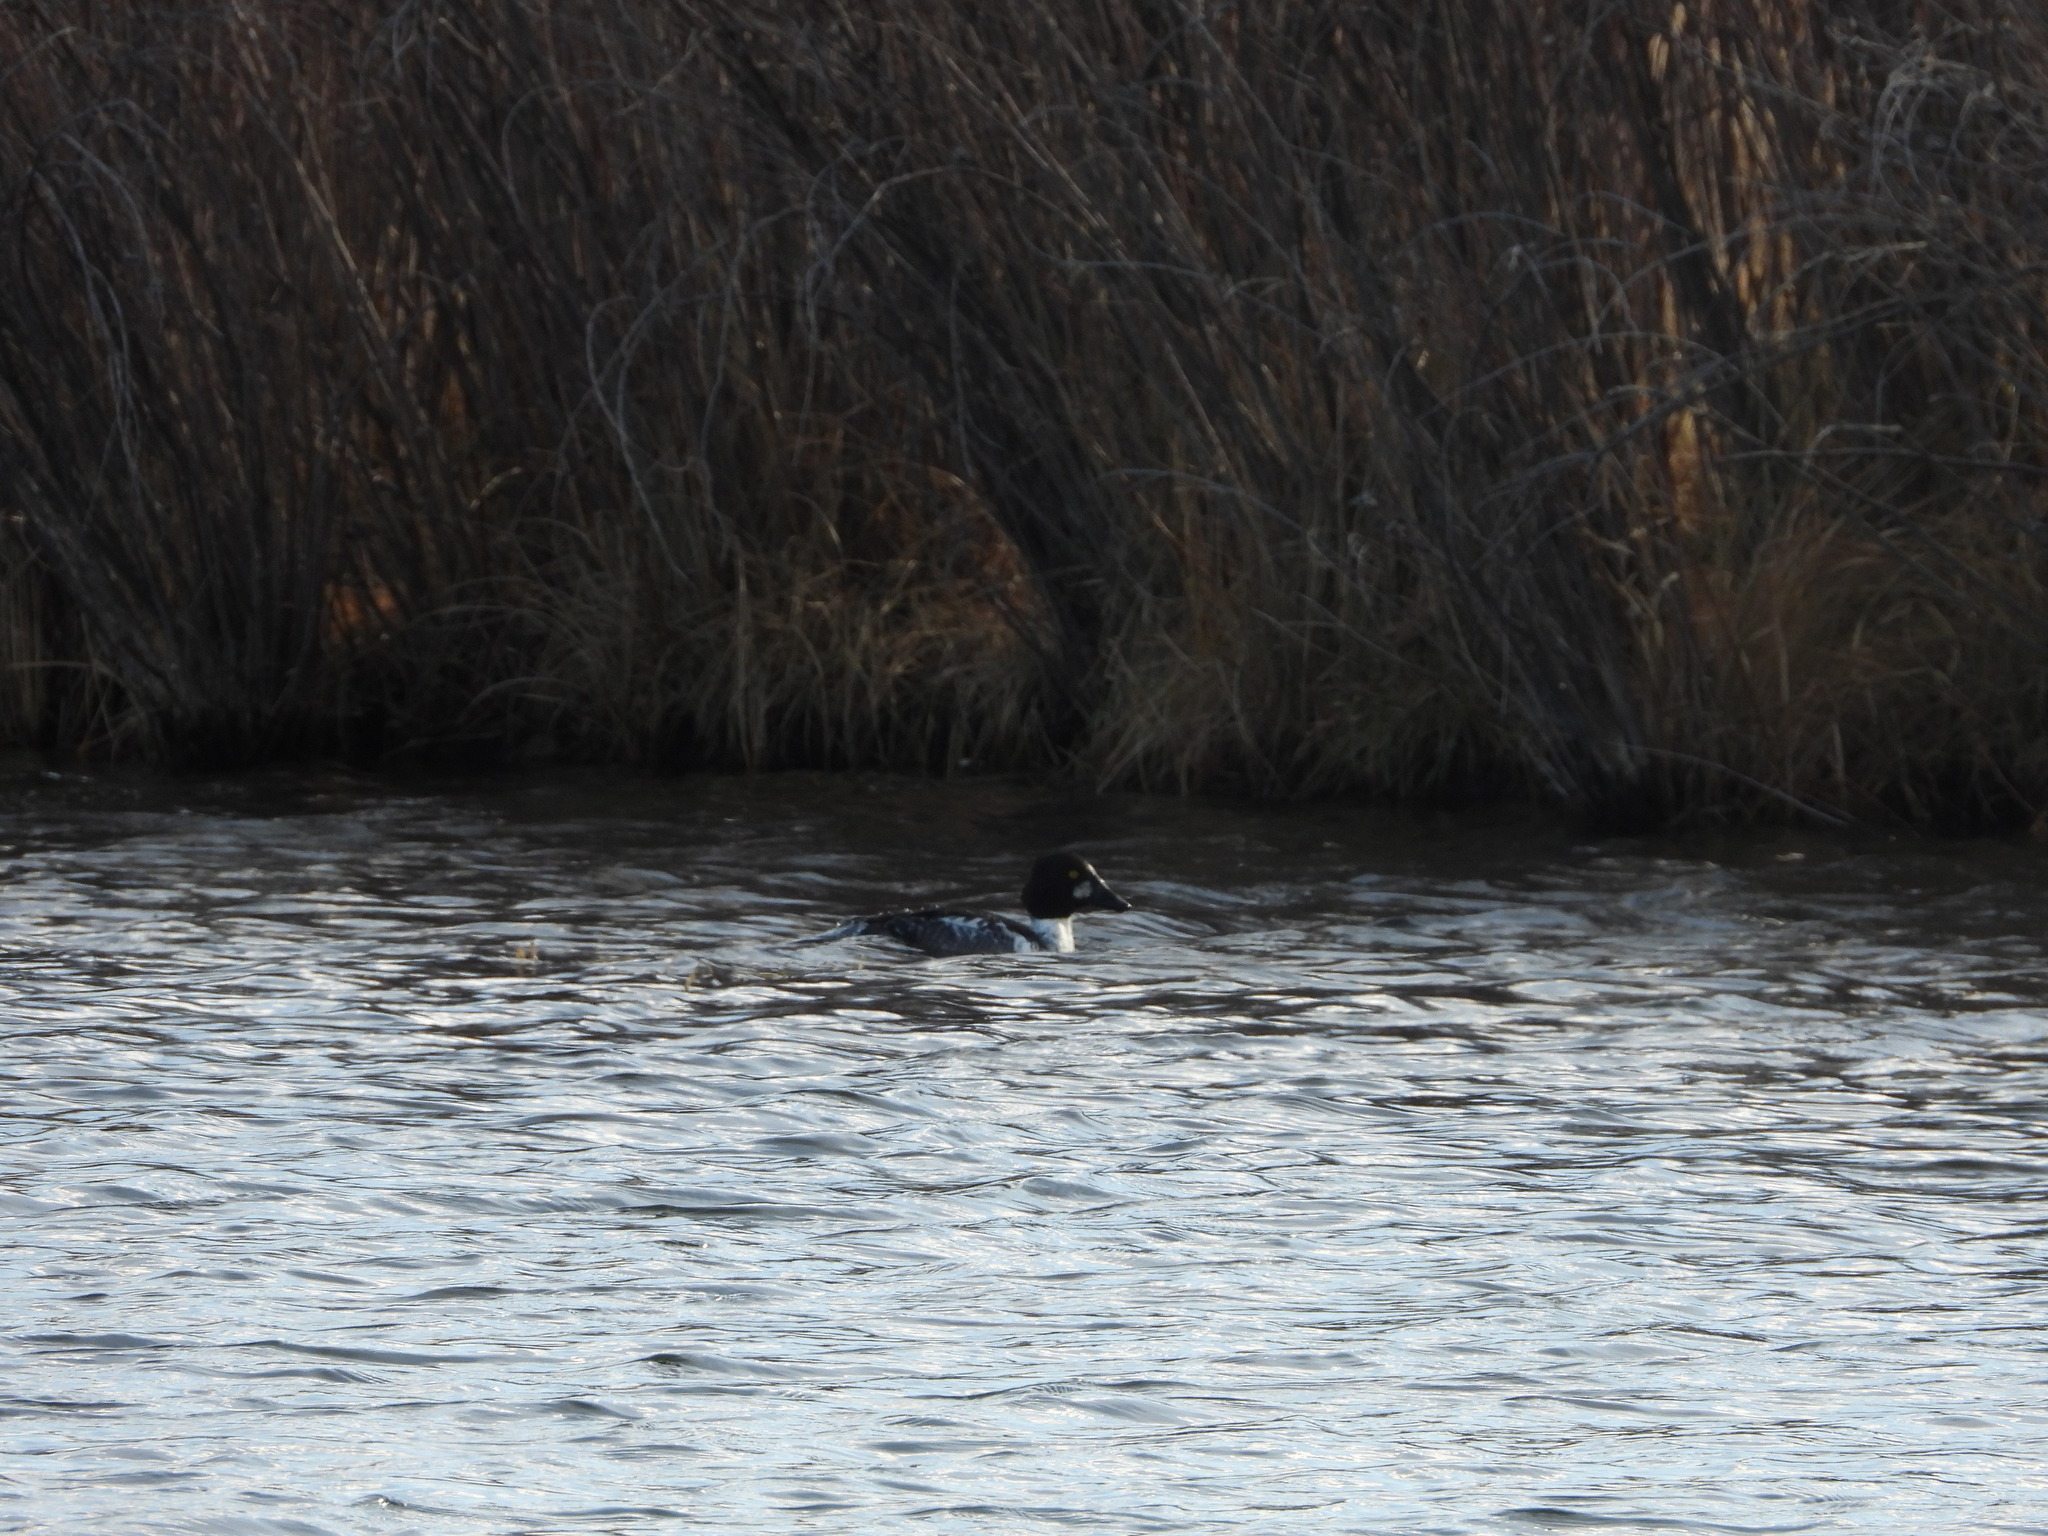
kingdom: Animalia
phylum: Chordata
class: Aves
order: Anseriformes
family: Anatidae
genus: Bucephala
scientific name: Bucephala clangula
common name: Common goldeneye
